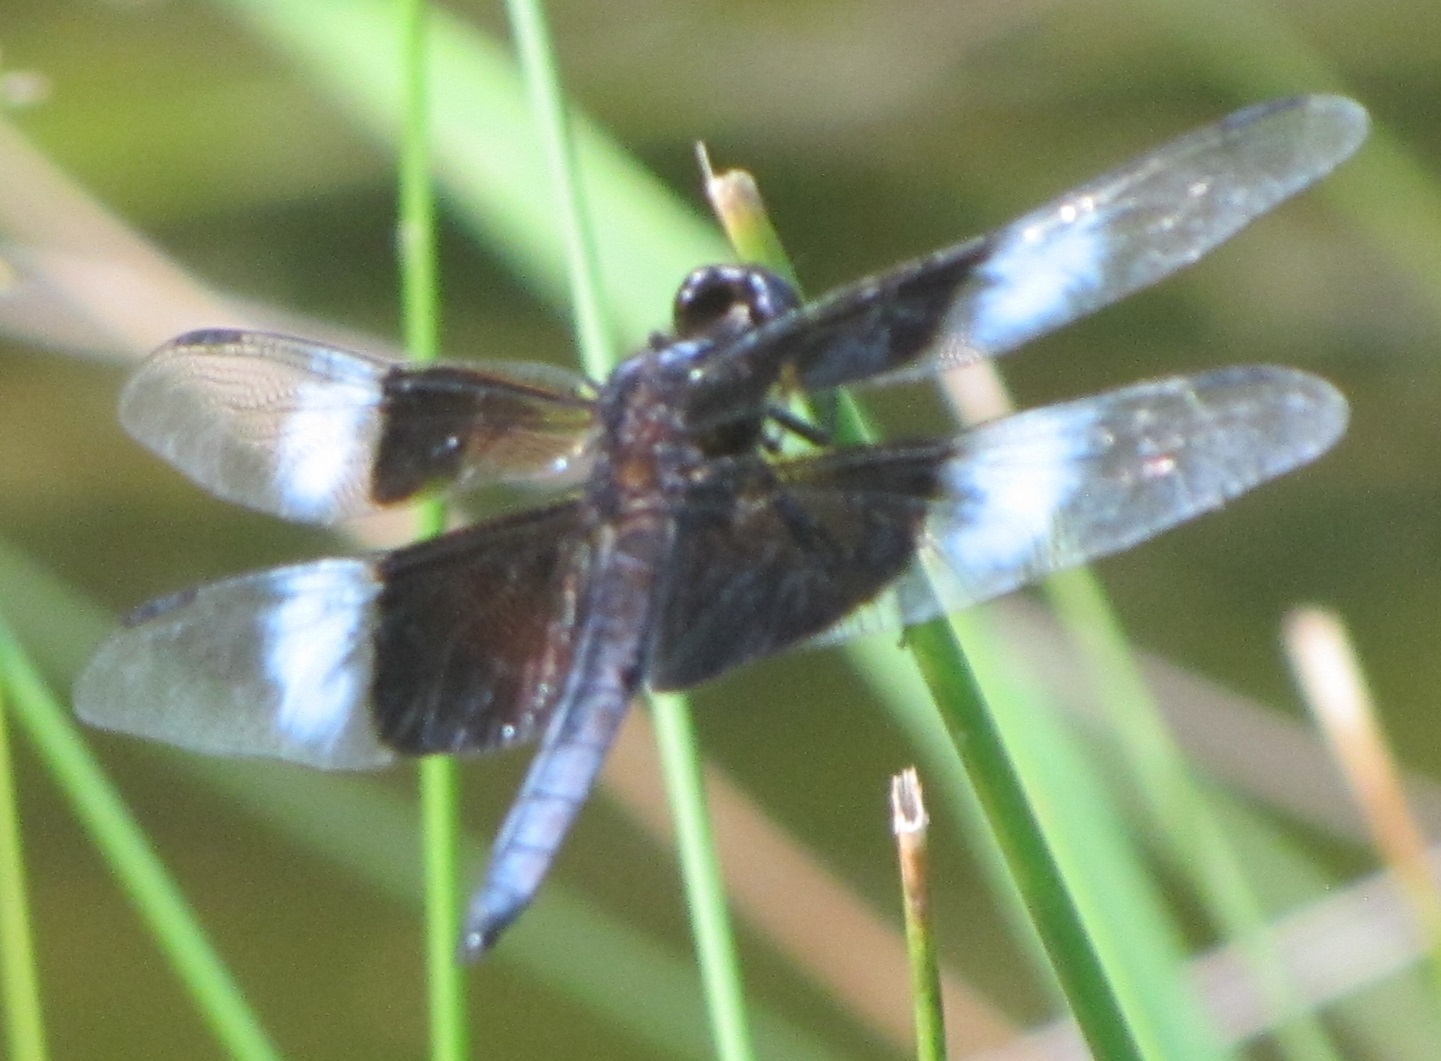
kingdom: Animalia
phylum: Arthropoda
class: Insecta
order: Odonata
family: Libellulidae
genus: Libellula
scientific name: Libellula luctuosa
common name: Widow skimmer
